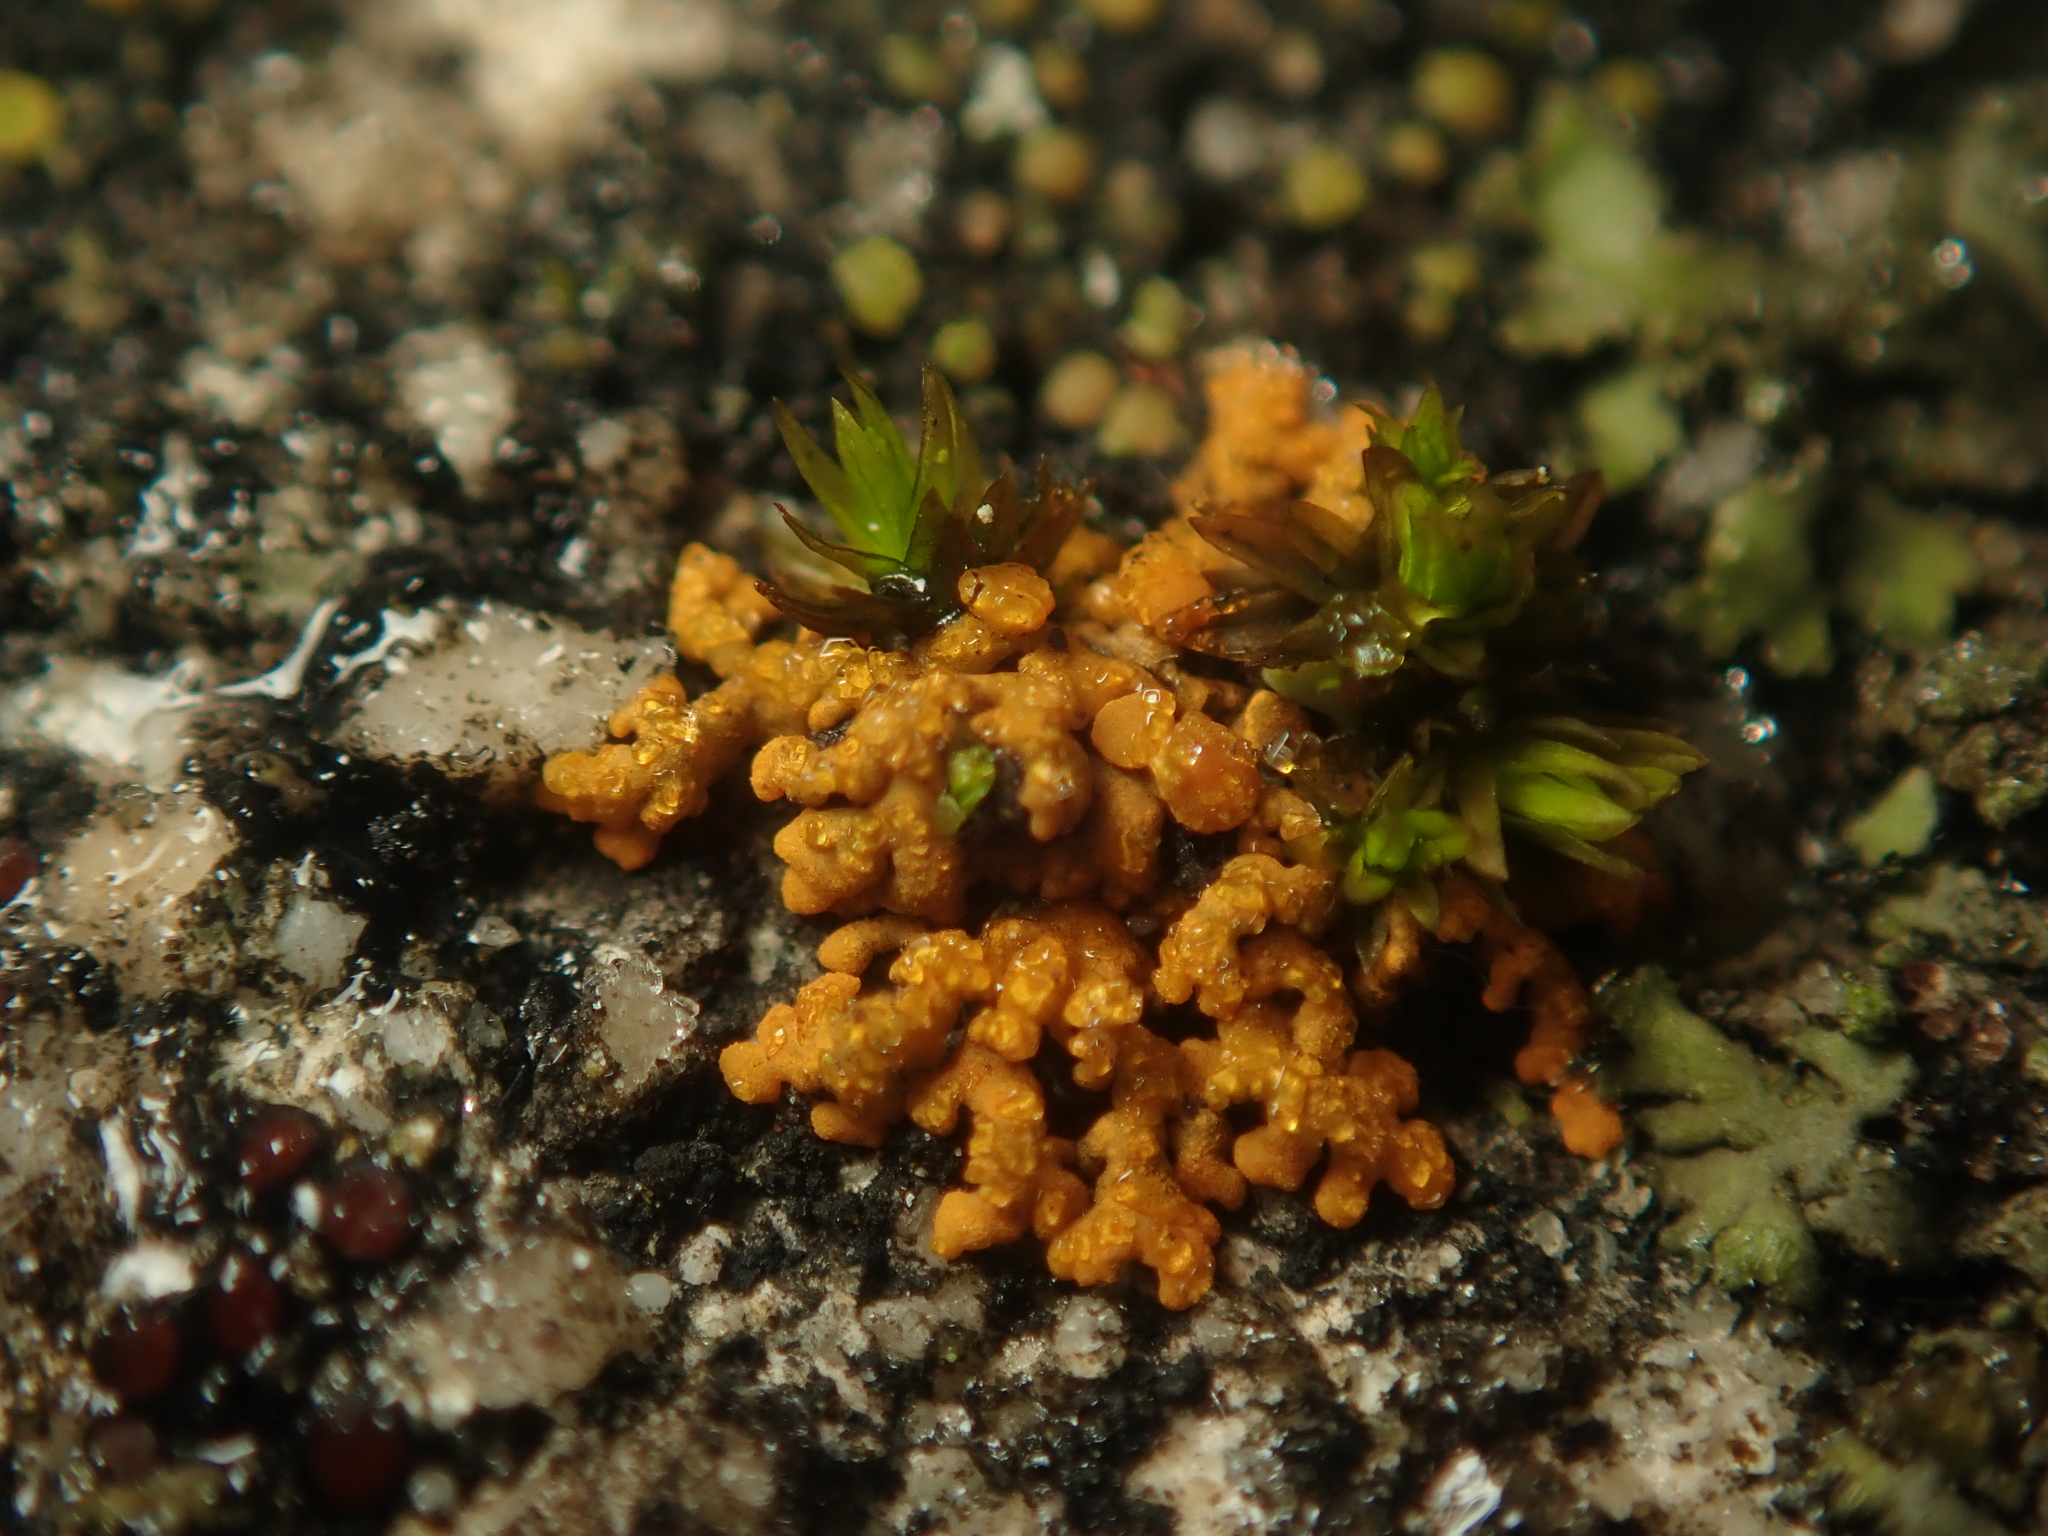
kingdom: Fungi
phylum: Ascomycota
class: Lecanoromycetes
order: Teloschistales
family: Teloschistaceae
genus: Xanthoria
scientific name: Xanthoria elegans
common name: Elegant sunburst lichen
